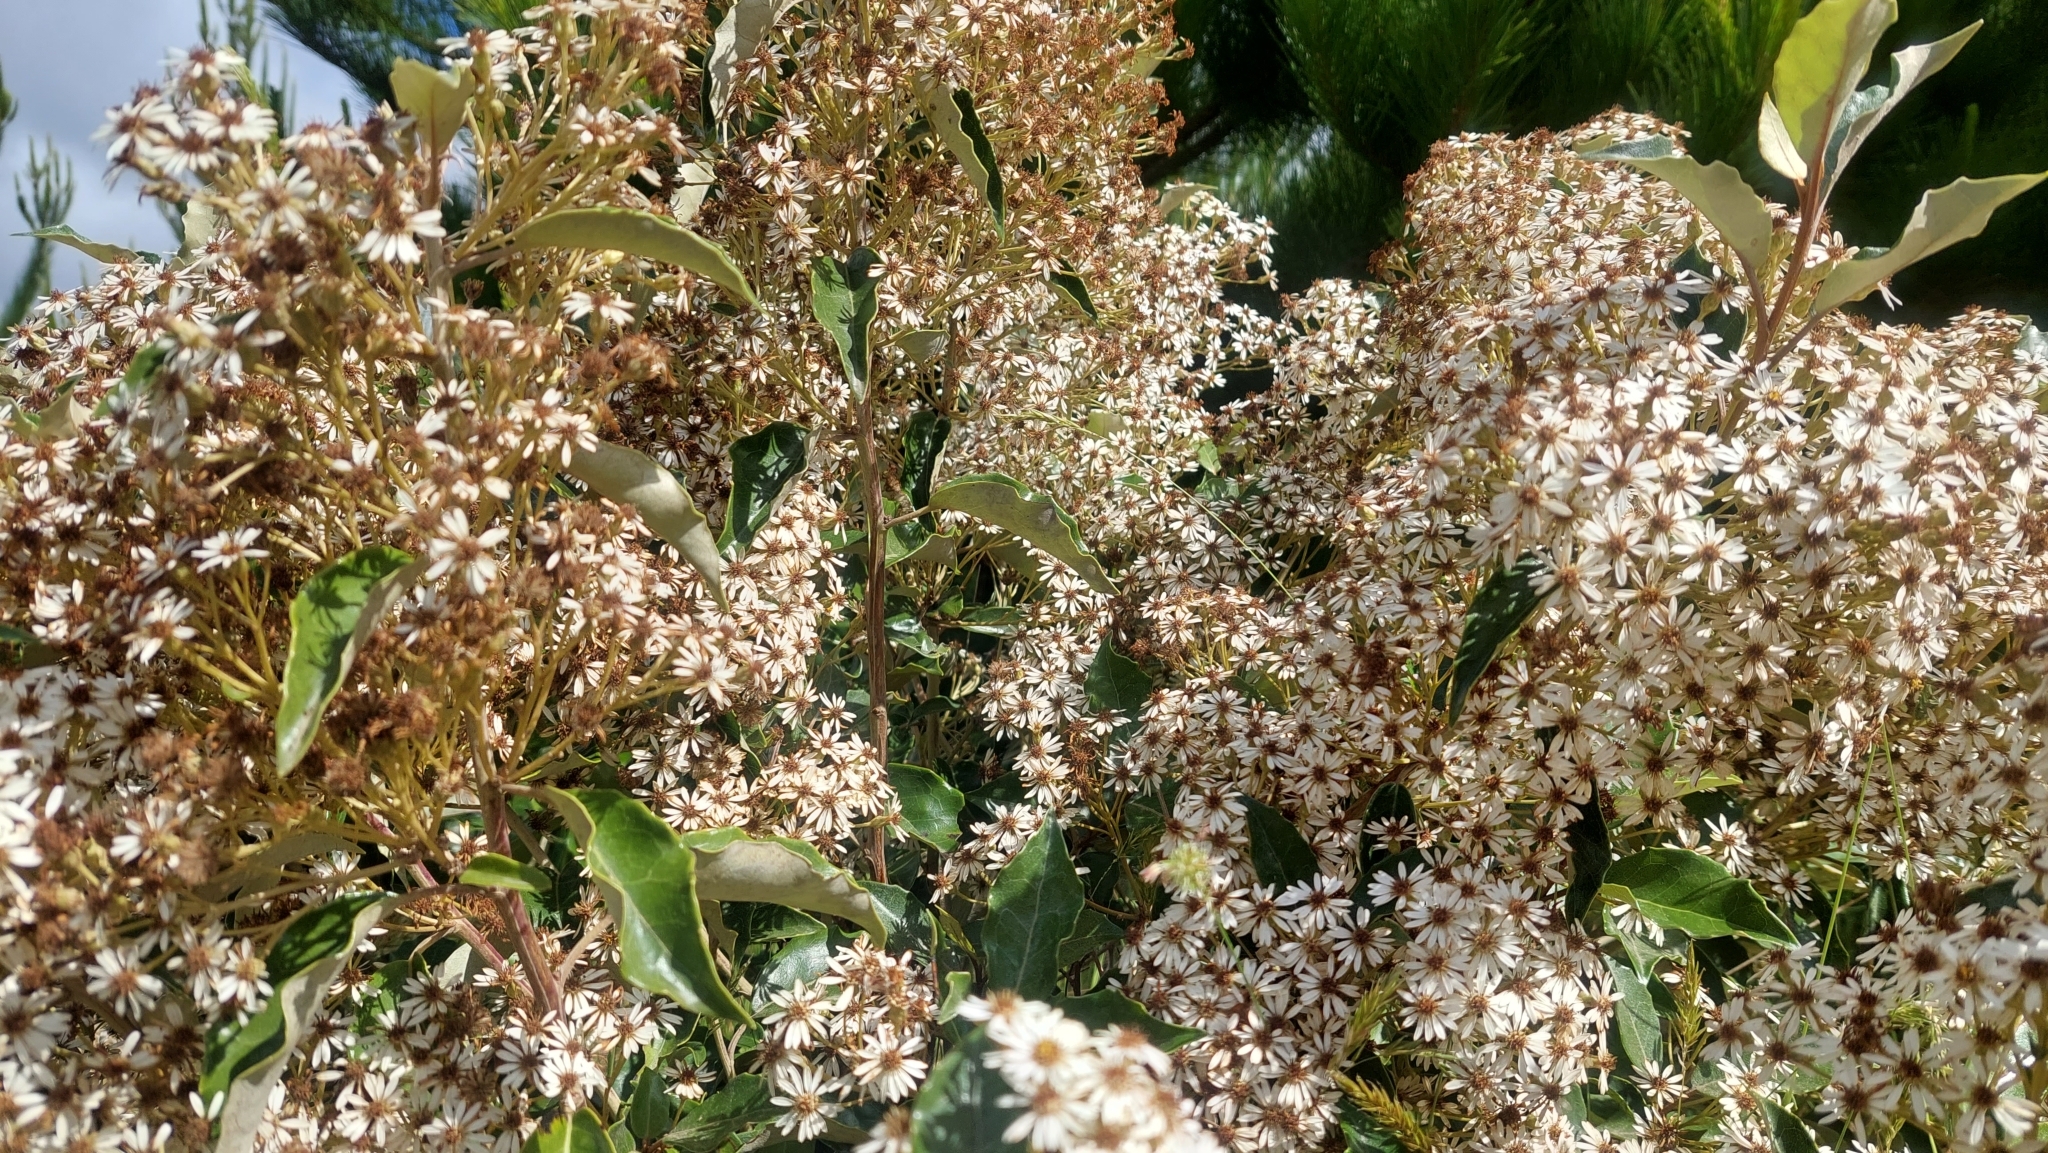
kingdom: Plantae
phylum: Tracheophyta
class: Magnoliopsida
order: Asterales
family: Asteraceae
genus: Olearia
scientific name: Olearia arborescens
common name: Glossy tree daisy
